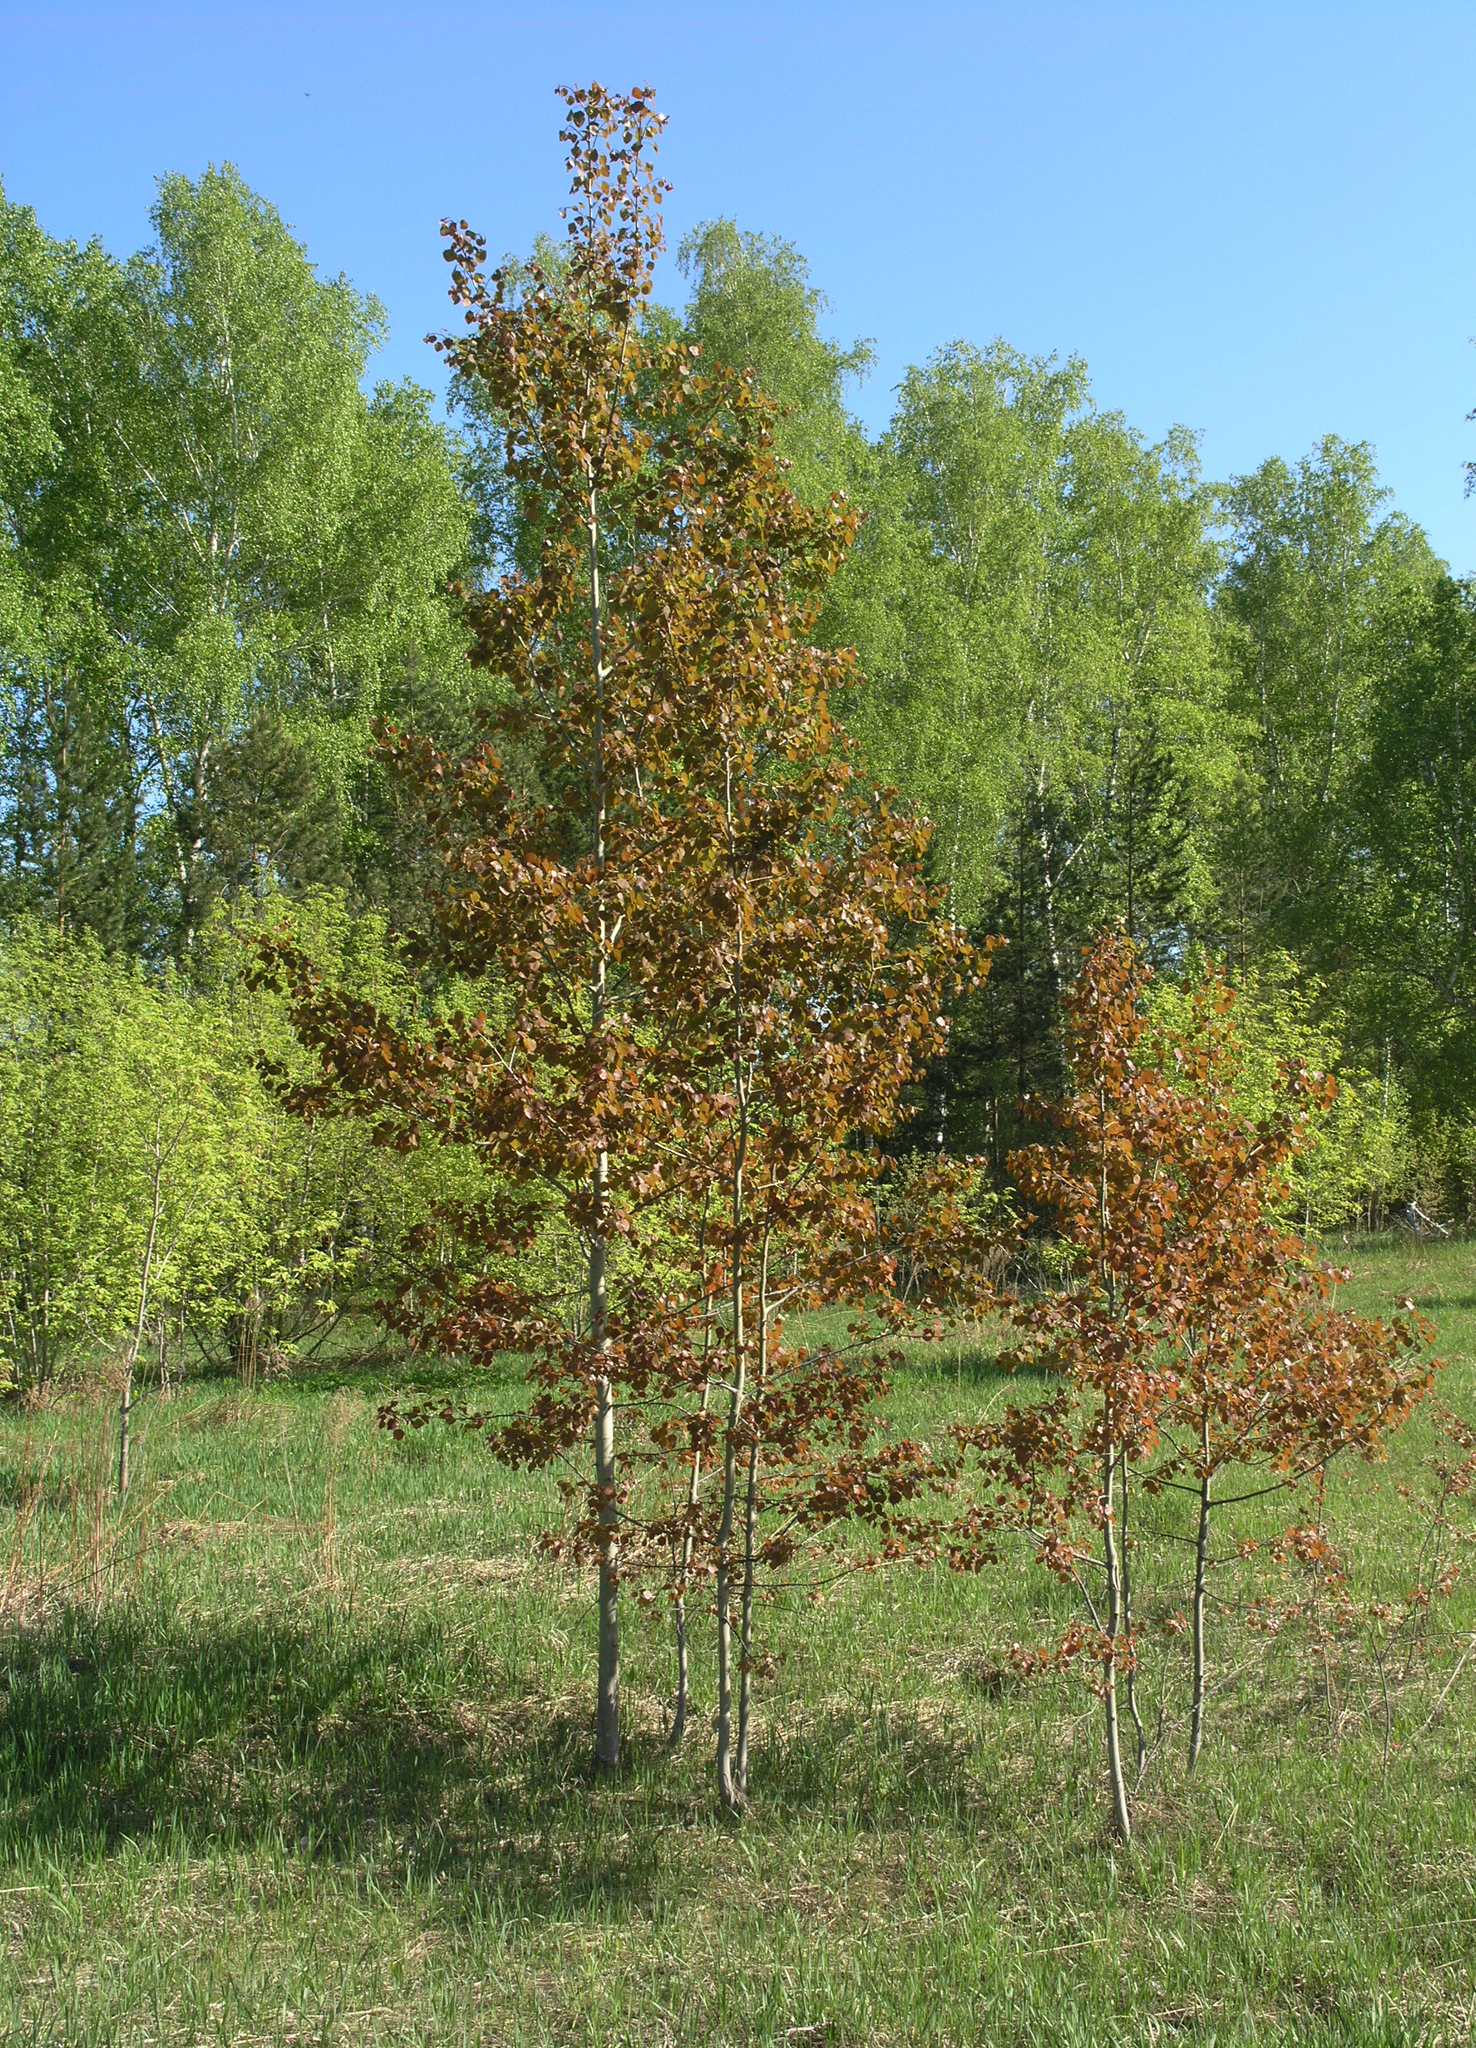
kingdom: Plantae
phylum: Tracheophyta
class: Magnoliopsida
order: Malpighiales
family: Salicaceae
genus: Populus
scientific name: Populus tremula
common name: European aspen
